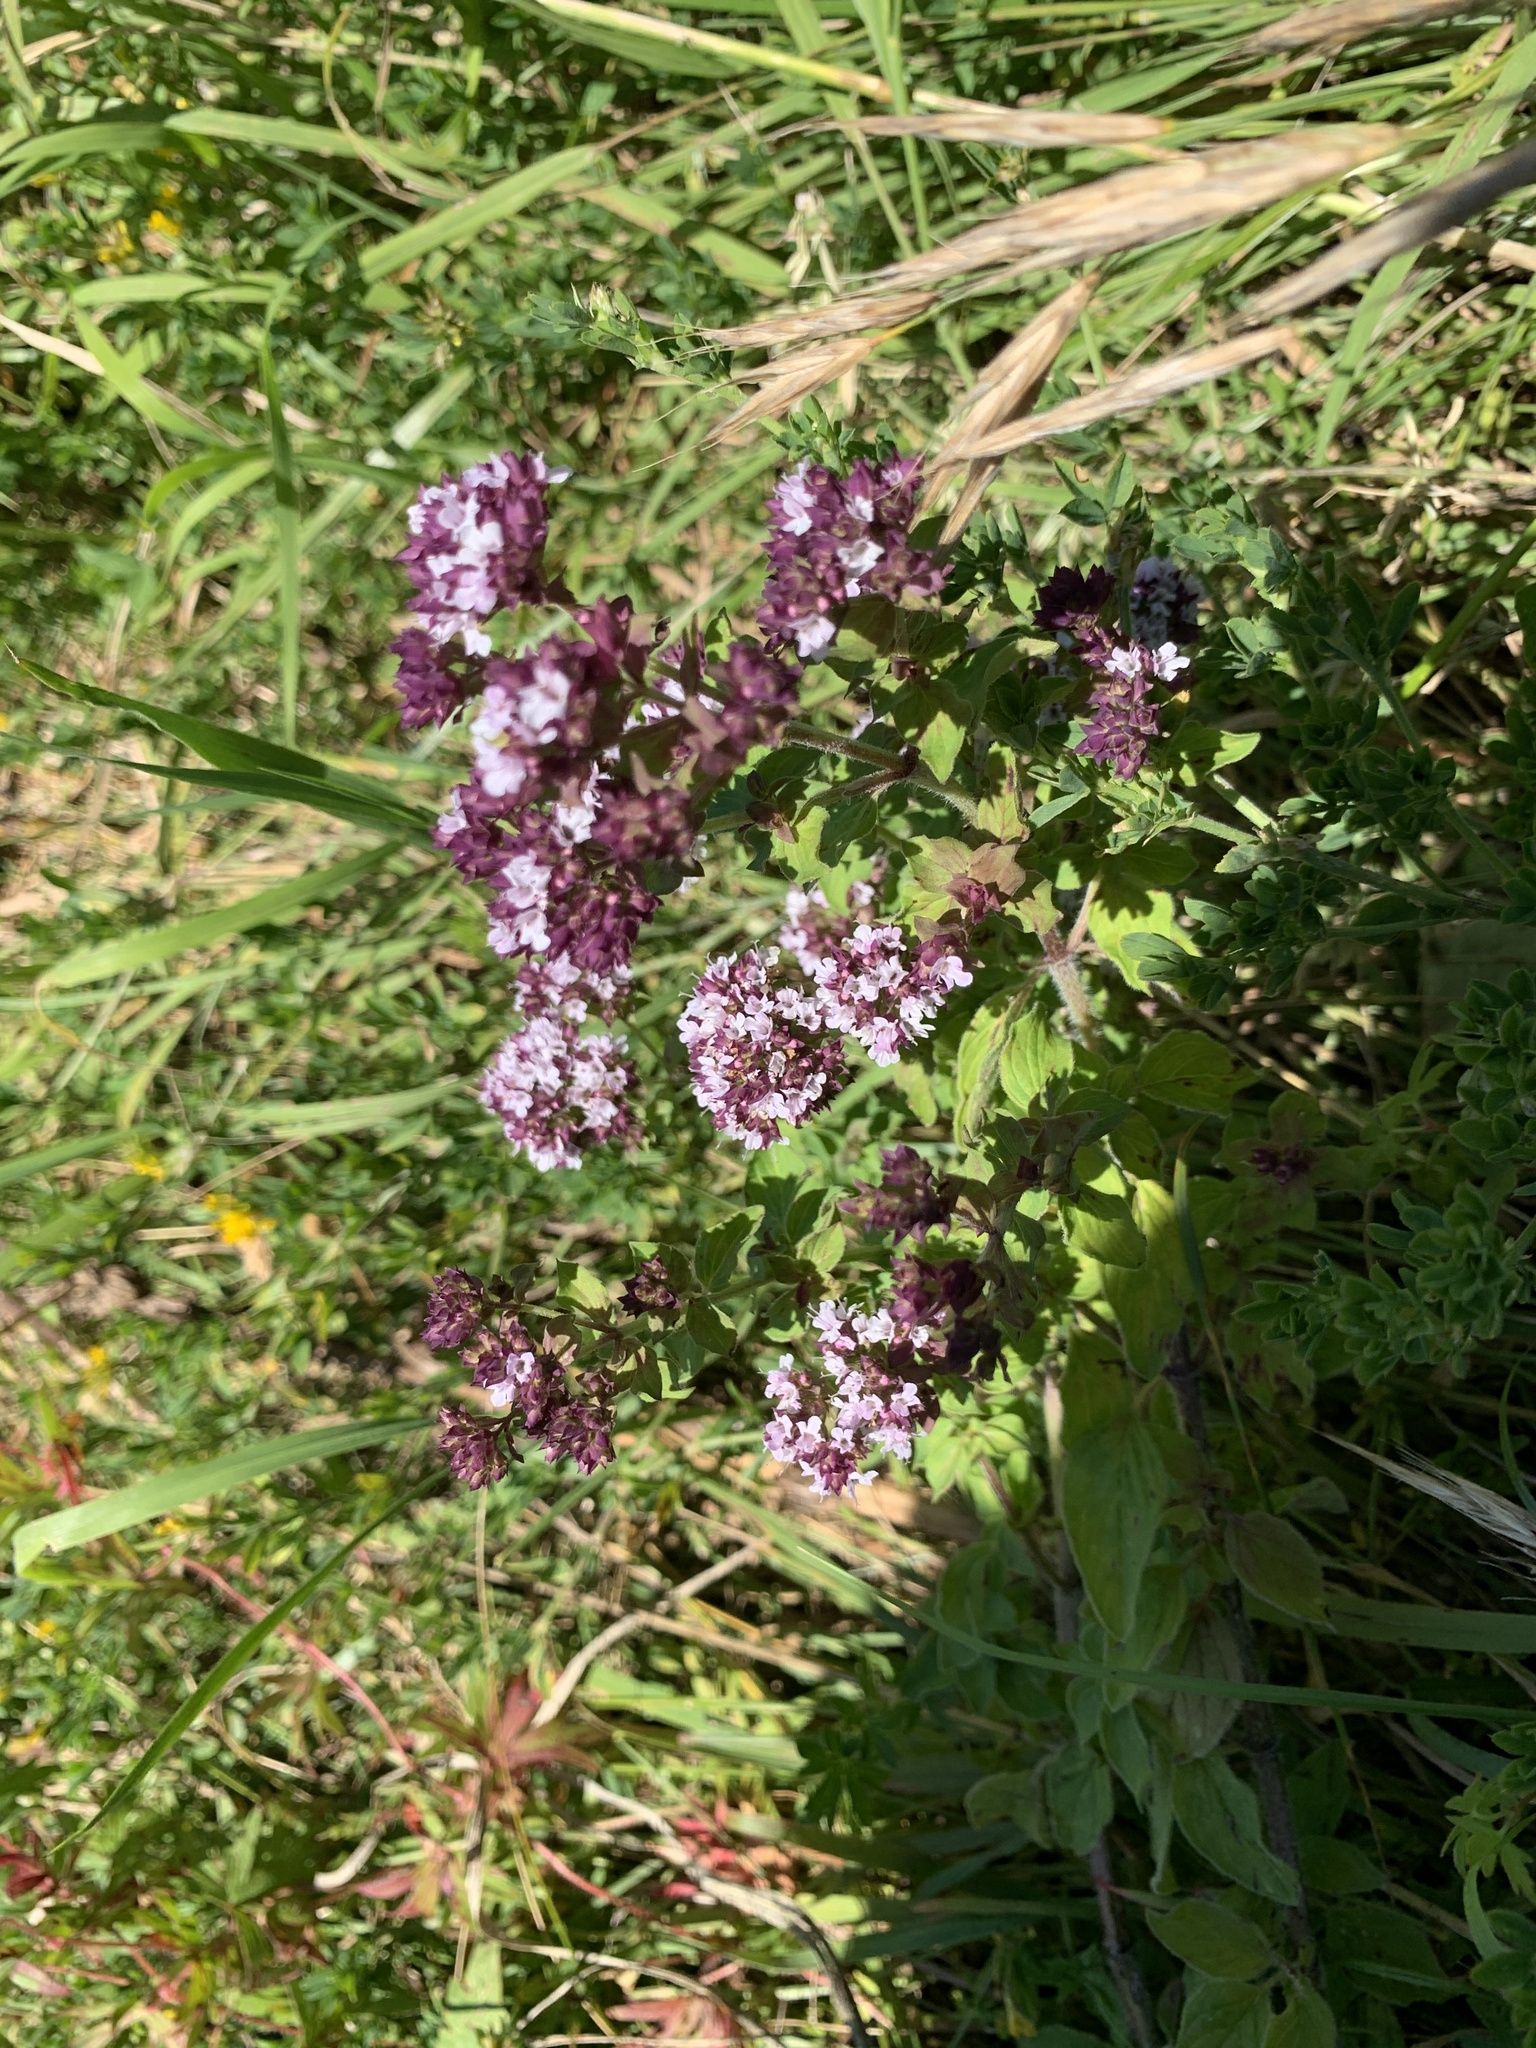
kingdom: Plantae
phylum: Tracheophyta
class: Magnoliopsida
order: Lamiales
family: Lamiaceae
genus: Origanum
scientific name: Origanum vulgare
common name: Wild marjoram
